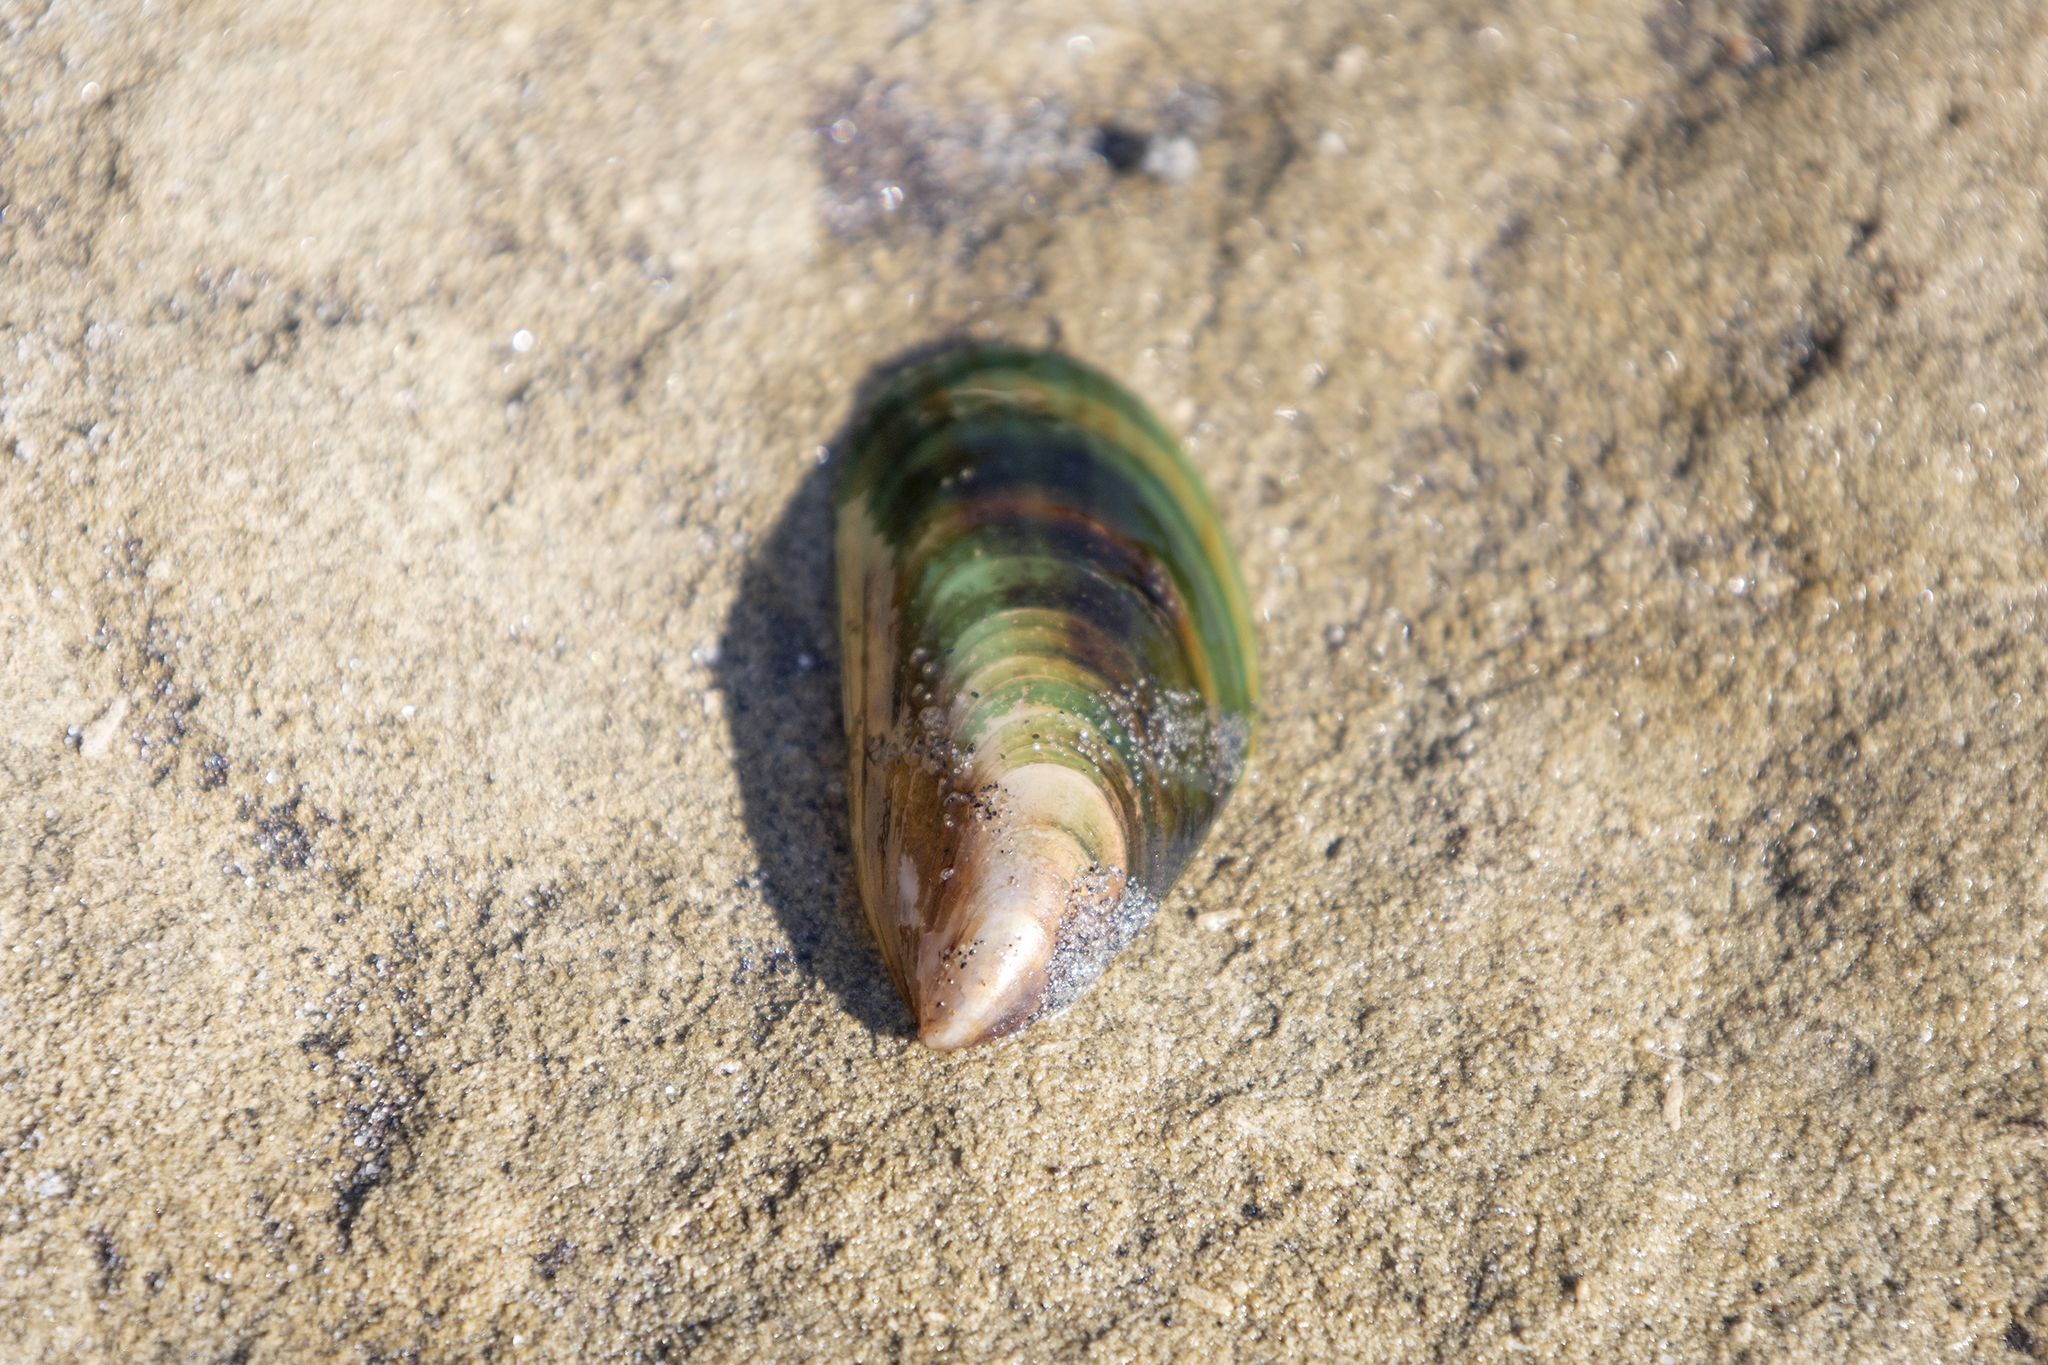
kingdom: Animalia
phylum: Mollusca
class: Bivalvia
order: Mytilida
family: Mytilidae
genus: Perna
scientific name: Perna canaliculus
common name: New zealand greenshelltm
